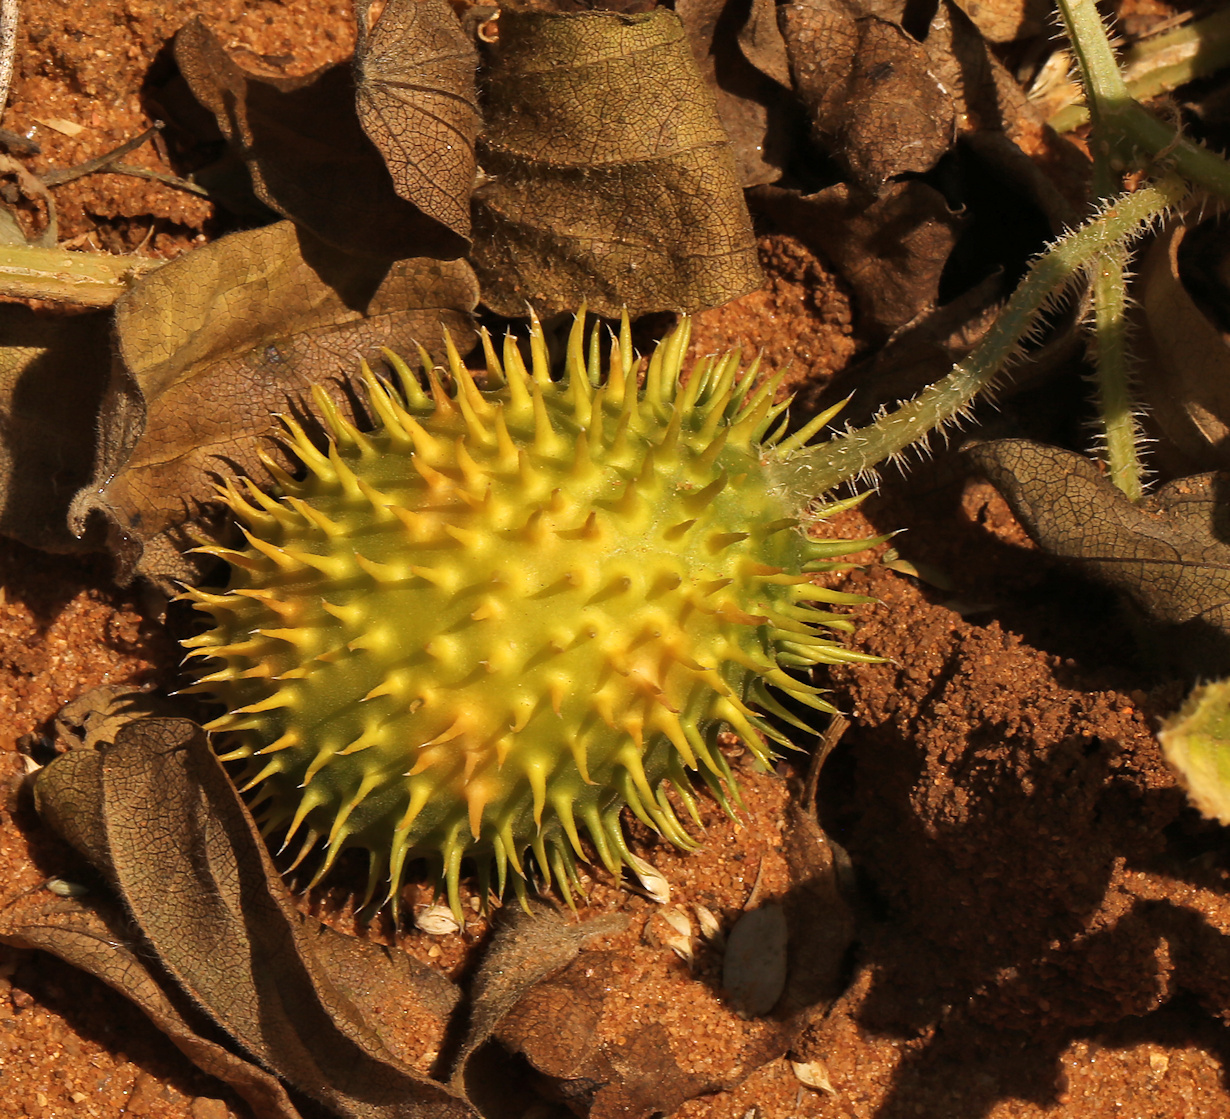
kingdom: Plantae
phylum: Tracheophyta
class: Magnoliopsida
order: Cucurbitales
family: Cucurbitaceae
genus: Cucumis
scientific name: Cucumis zeyheri
